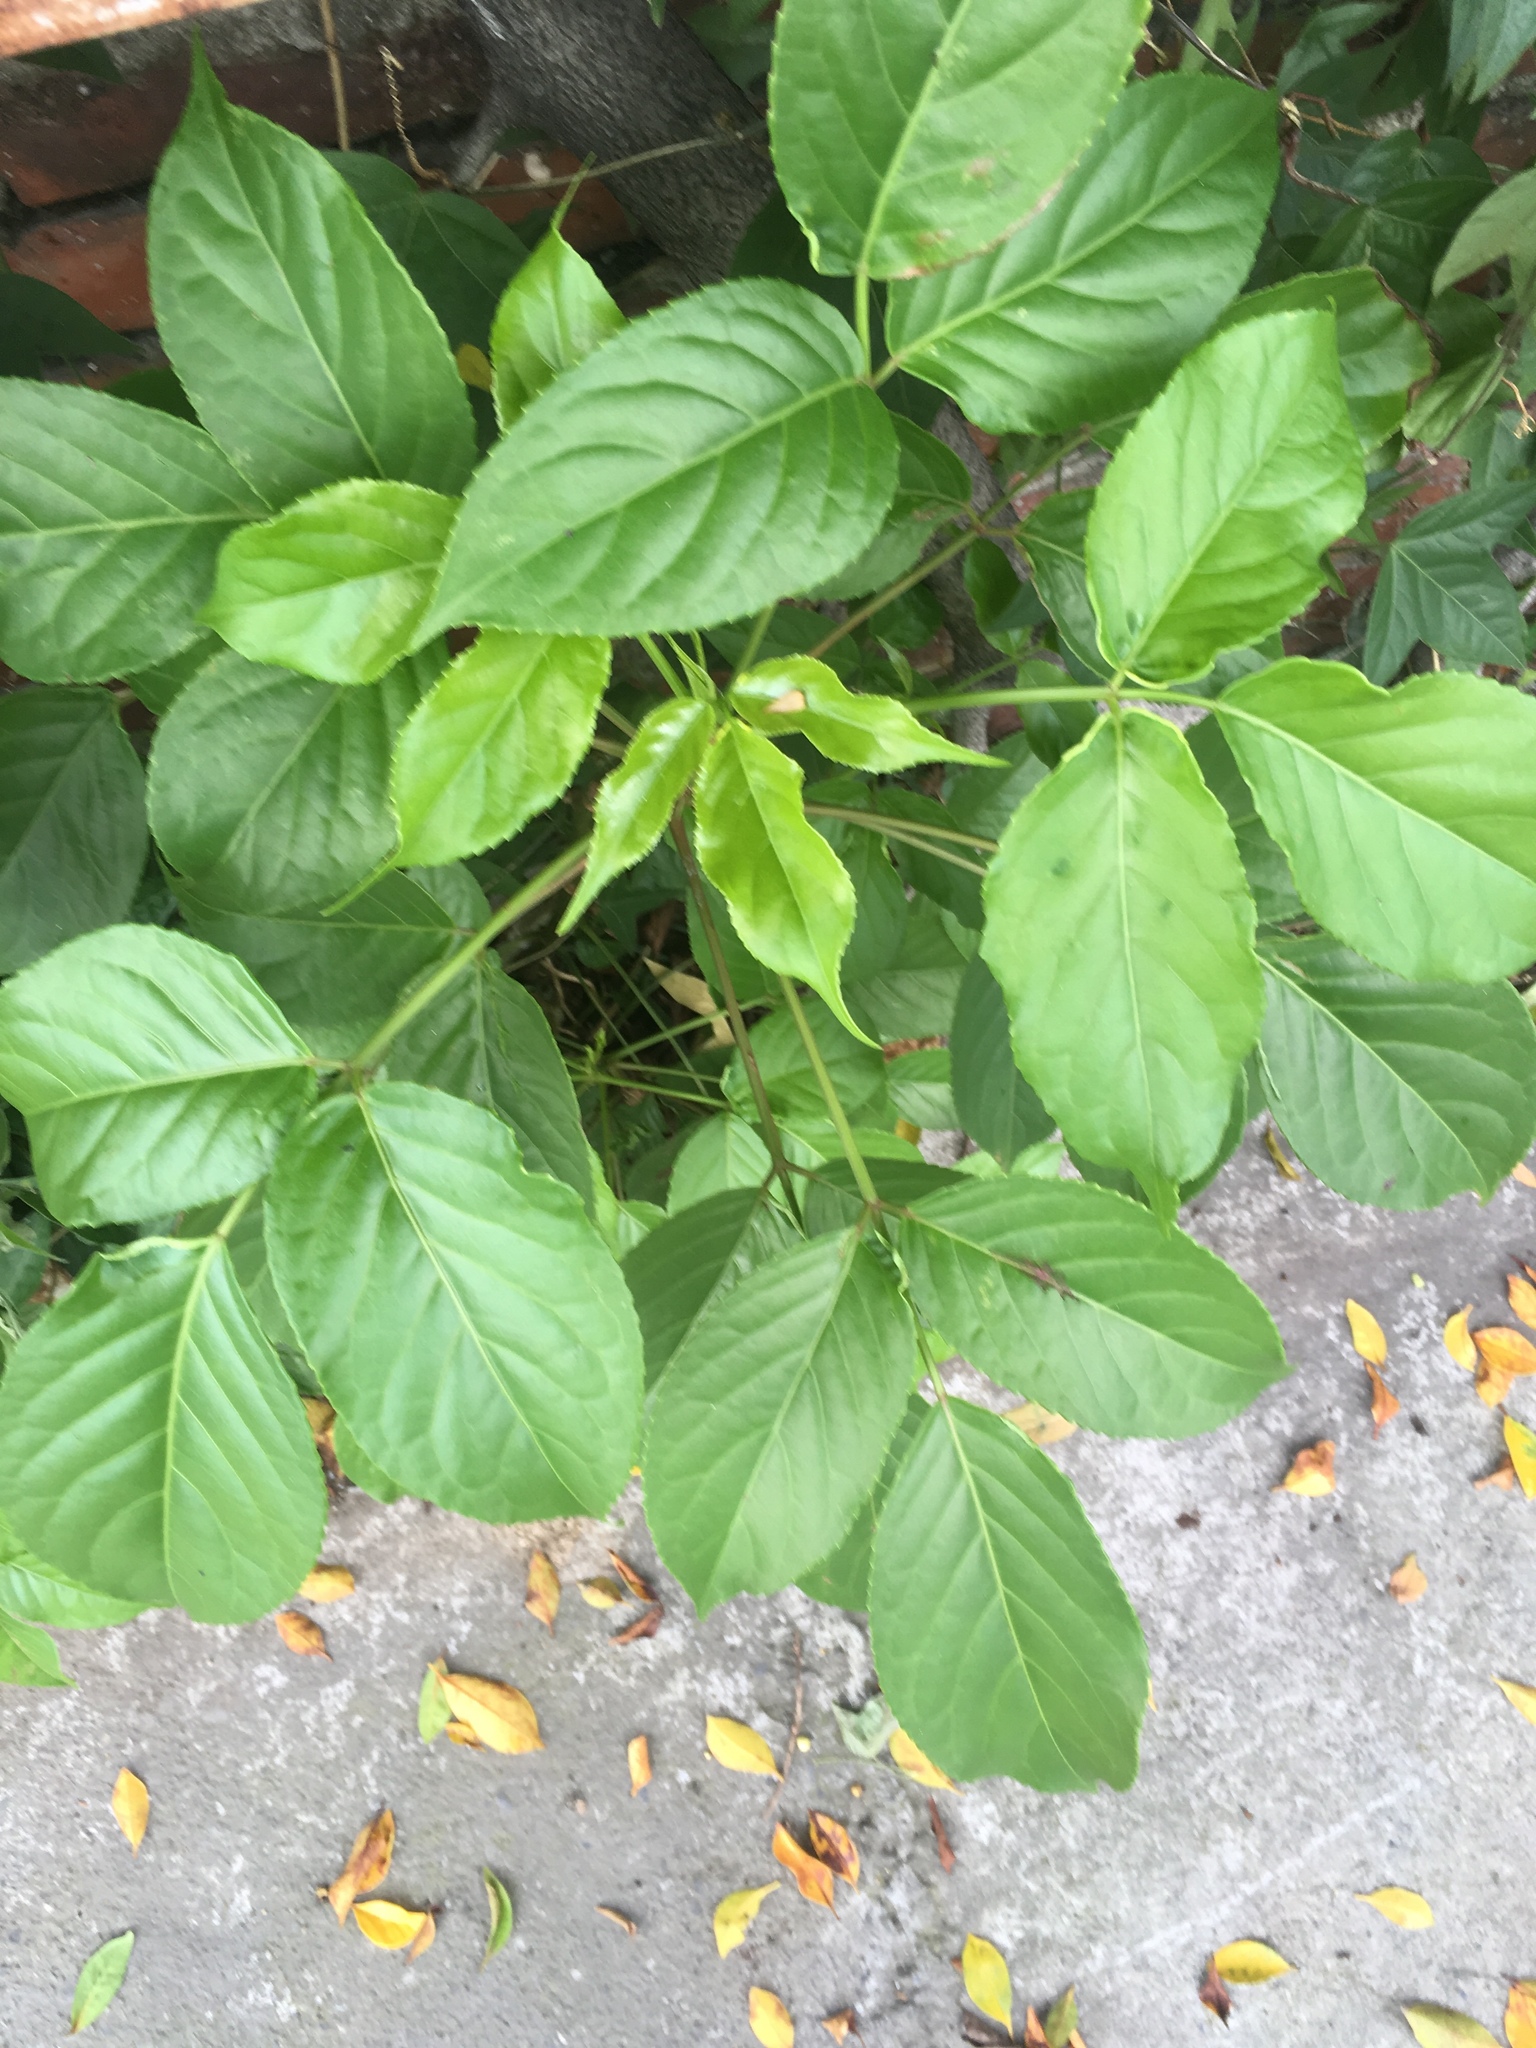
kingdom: Plantae
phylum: Tracheophyta
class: Magnoliopsida
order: Malpighiales
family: Phyllanthaceae
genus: Bischofia
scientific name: Bischofia javanica
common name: Javanese bishopwood
